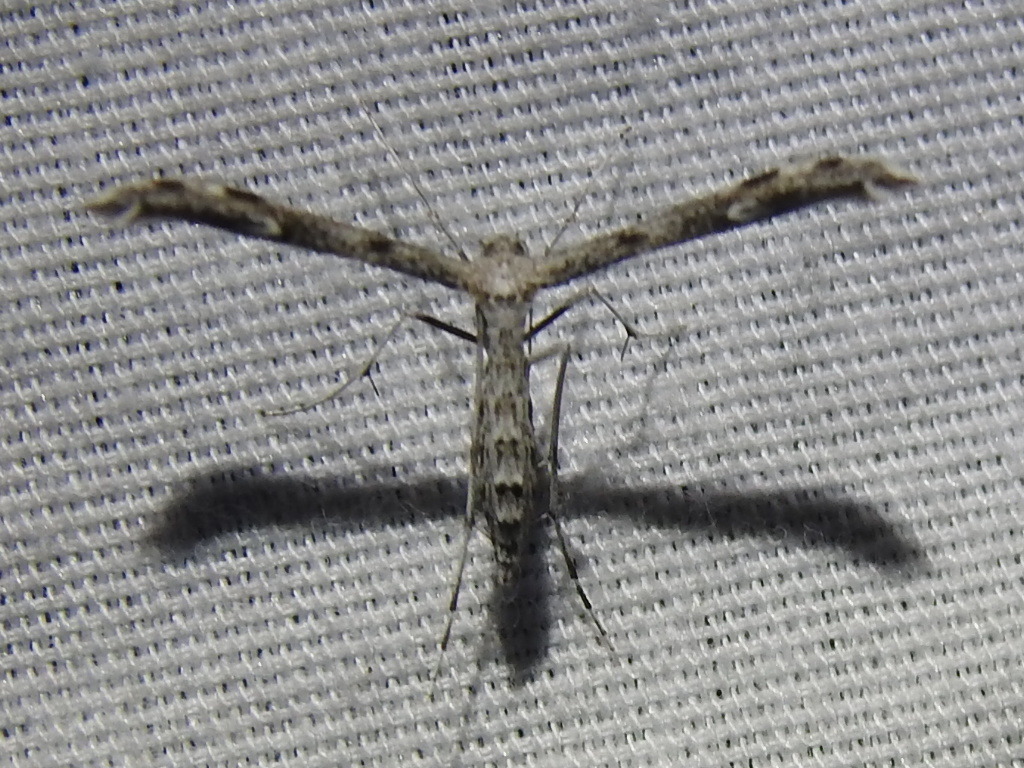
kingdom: Animalia
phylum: Arthropoda
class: Insecta
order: Lepidoptera
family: Pterophoridae
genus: Hellinsia
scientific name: Hellinsia inquinatus
